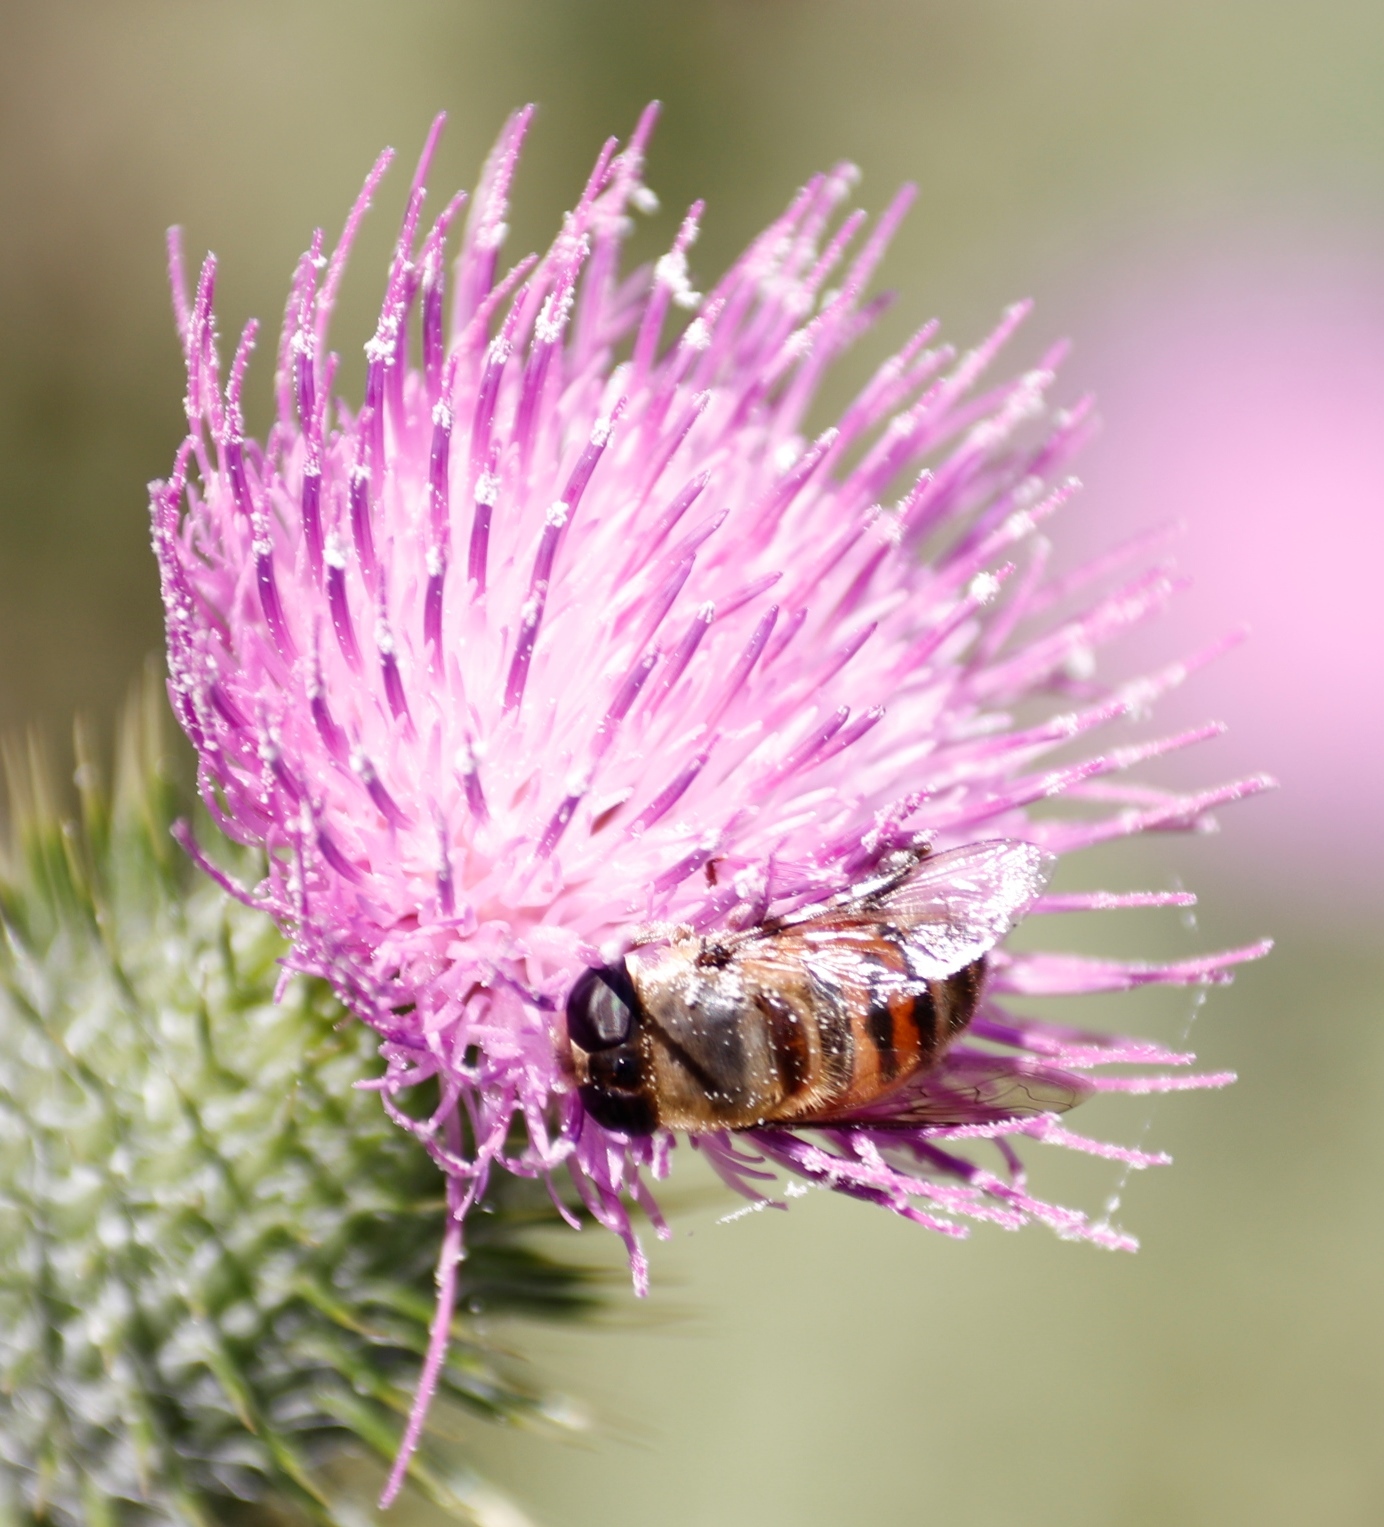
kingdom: Animalia
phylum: Arthropoda
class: Insecta
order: Diptera
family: Syrphidae
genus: Phytomia
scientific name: Phytomia incisa
